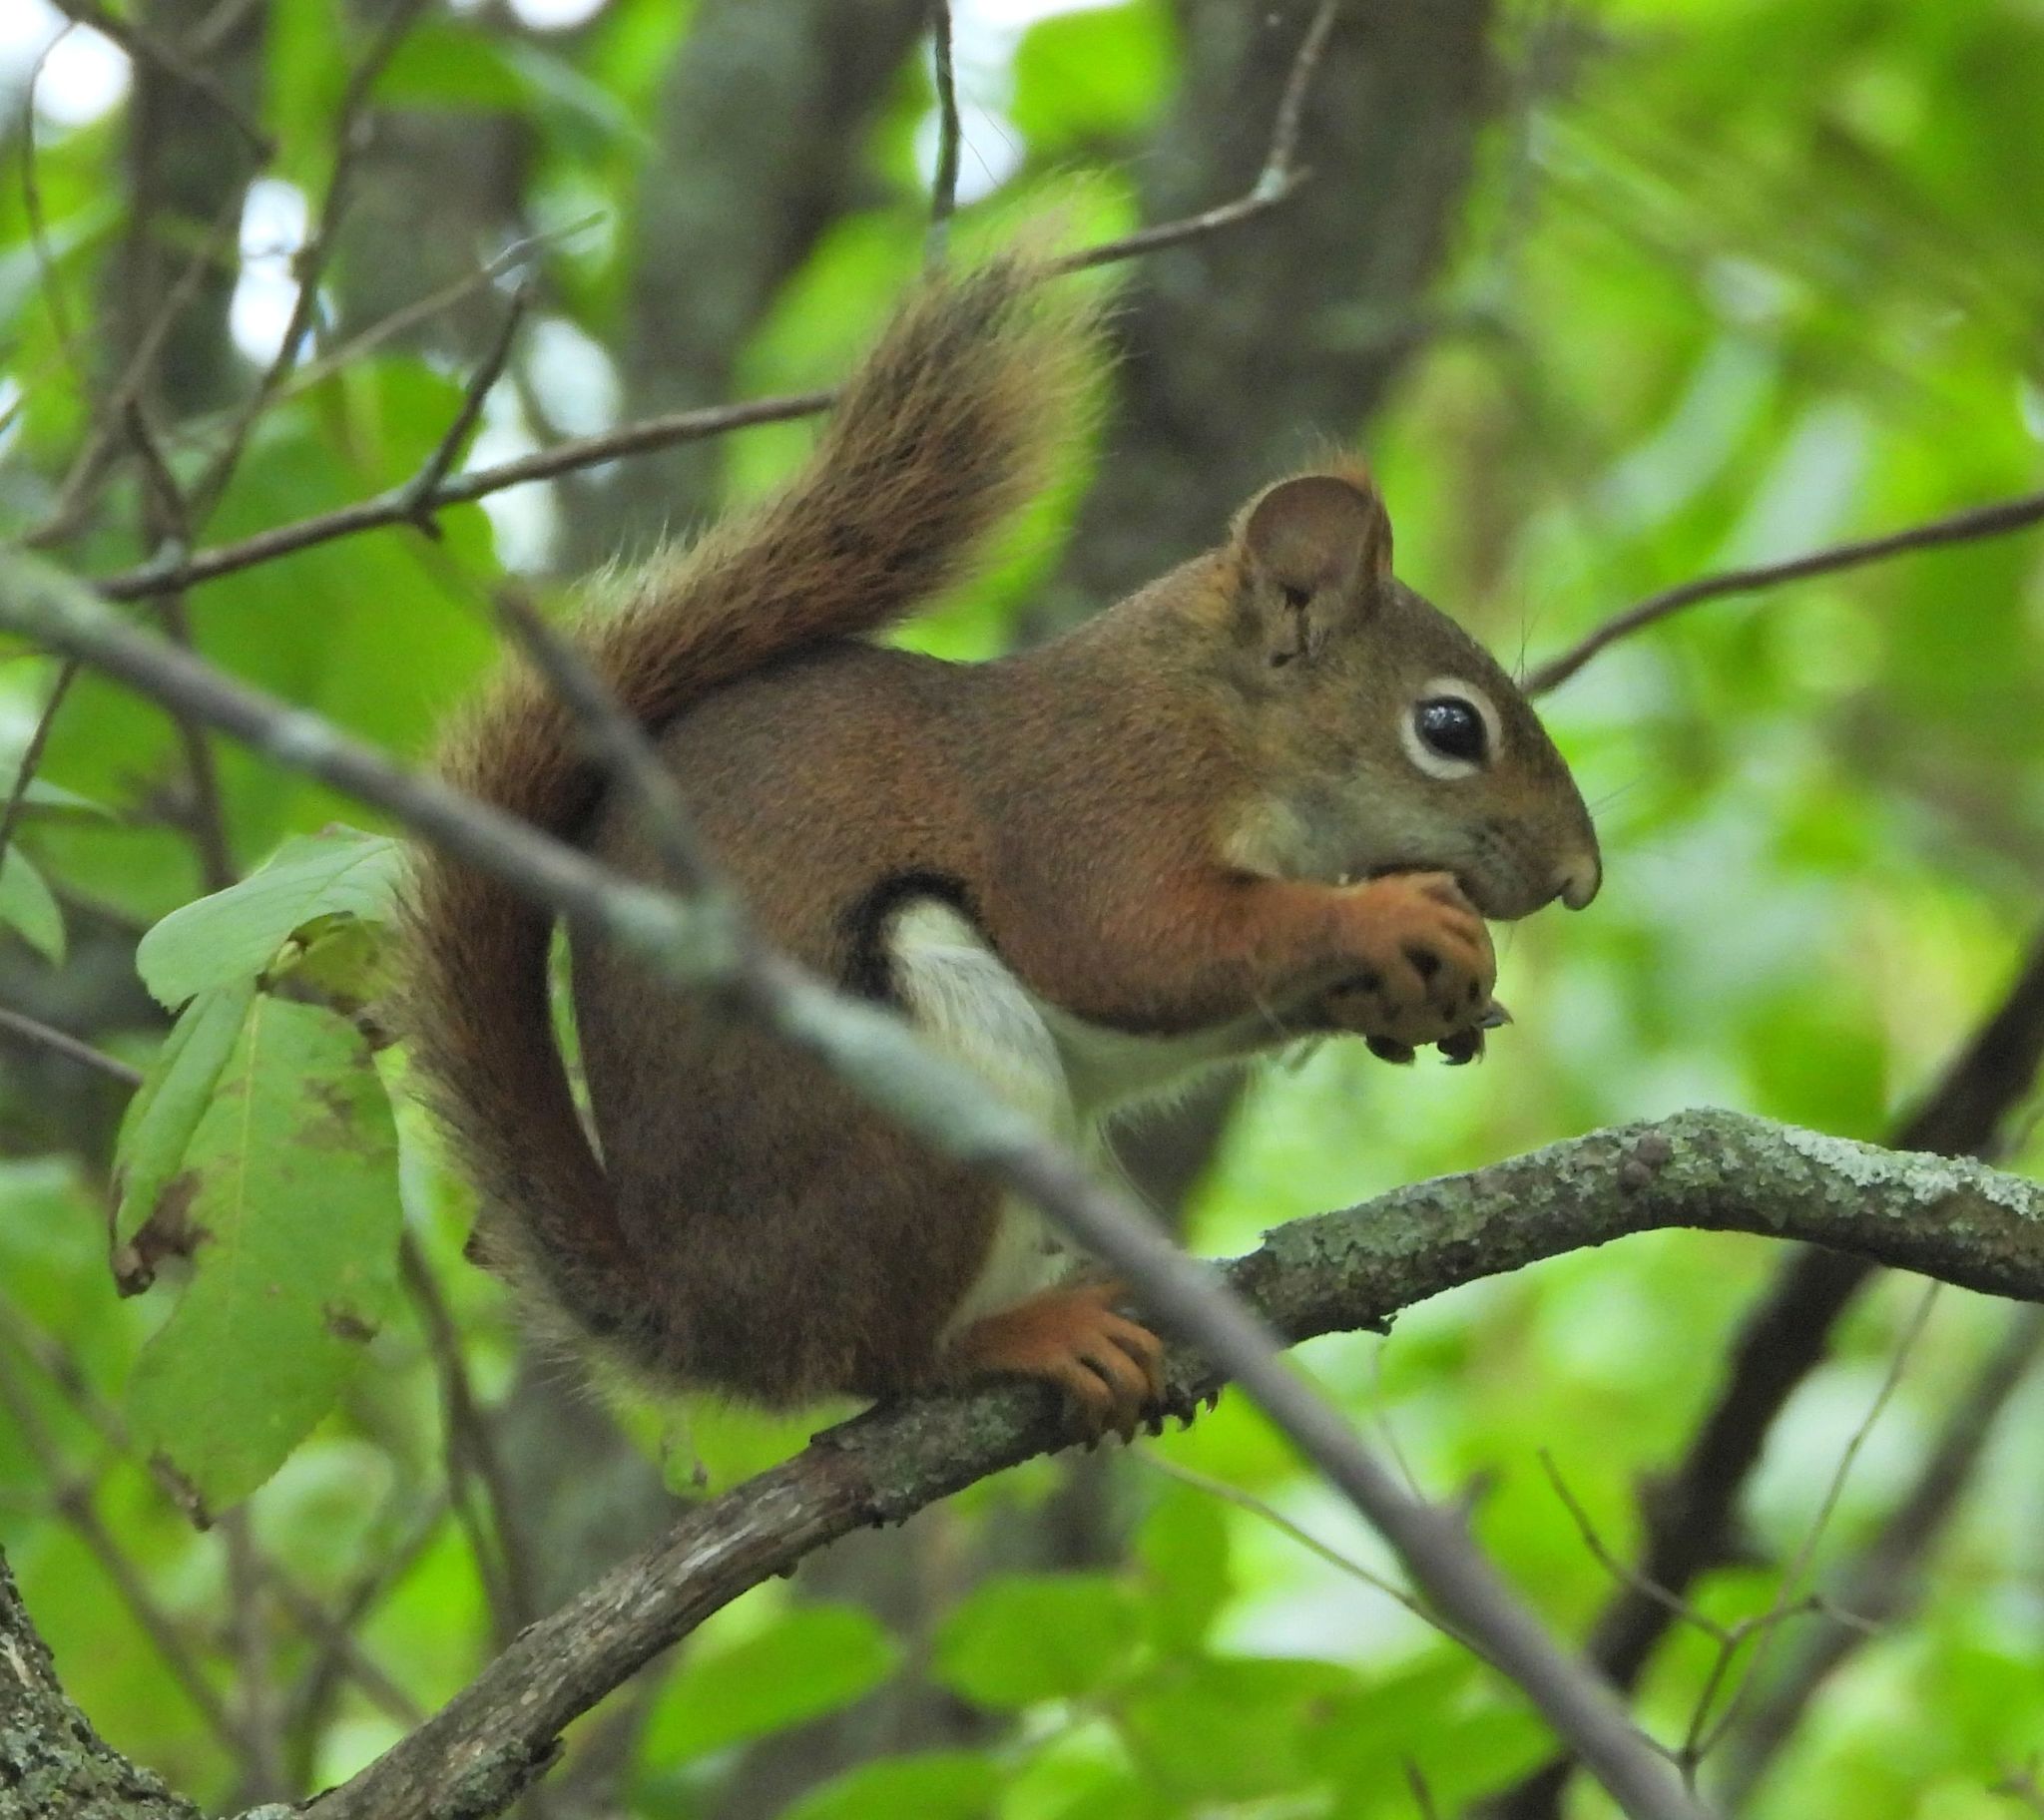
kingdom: Animalia
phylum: Chordata
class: Mammalia
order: Rodentia
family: Sciuridae
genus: Tamiasciurus
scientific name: Tamiasciurus hudsonicus
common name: Red squirrel
